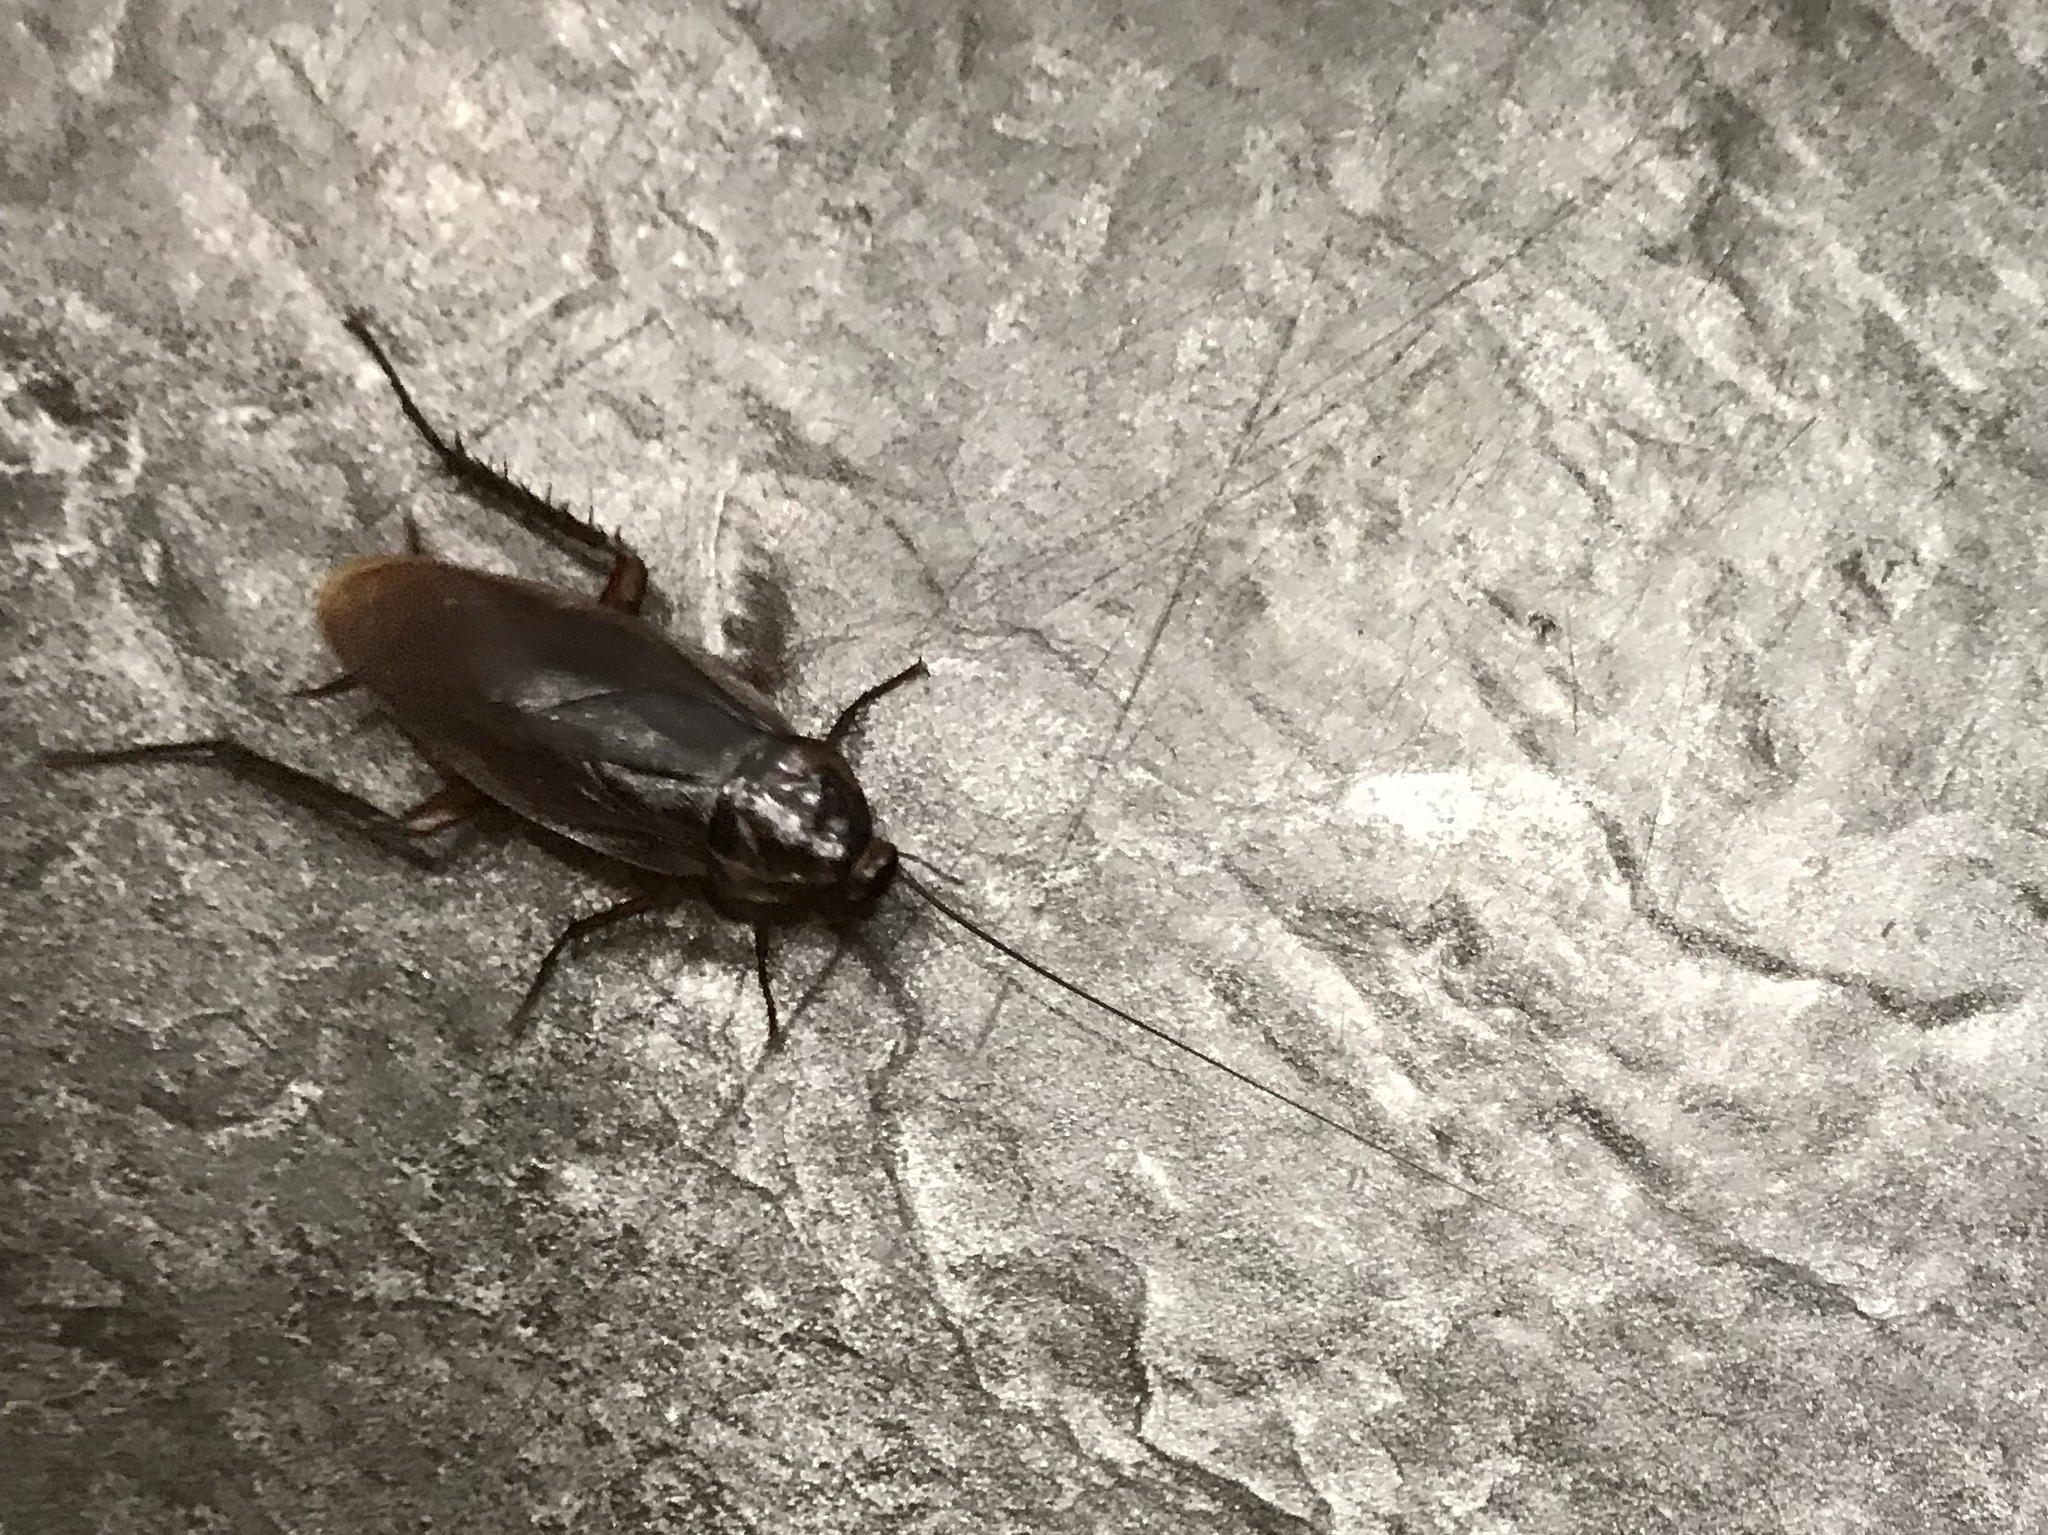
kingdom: Animalia
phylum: Arthropoda
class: Insecta
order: Blattodea
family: Blattidae
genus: Periplaneta
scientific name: Periplaneta americana
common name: American cockroach
